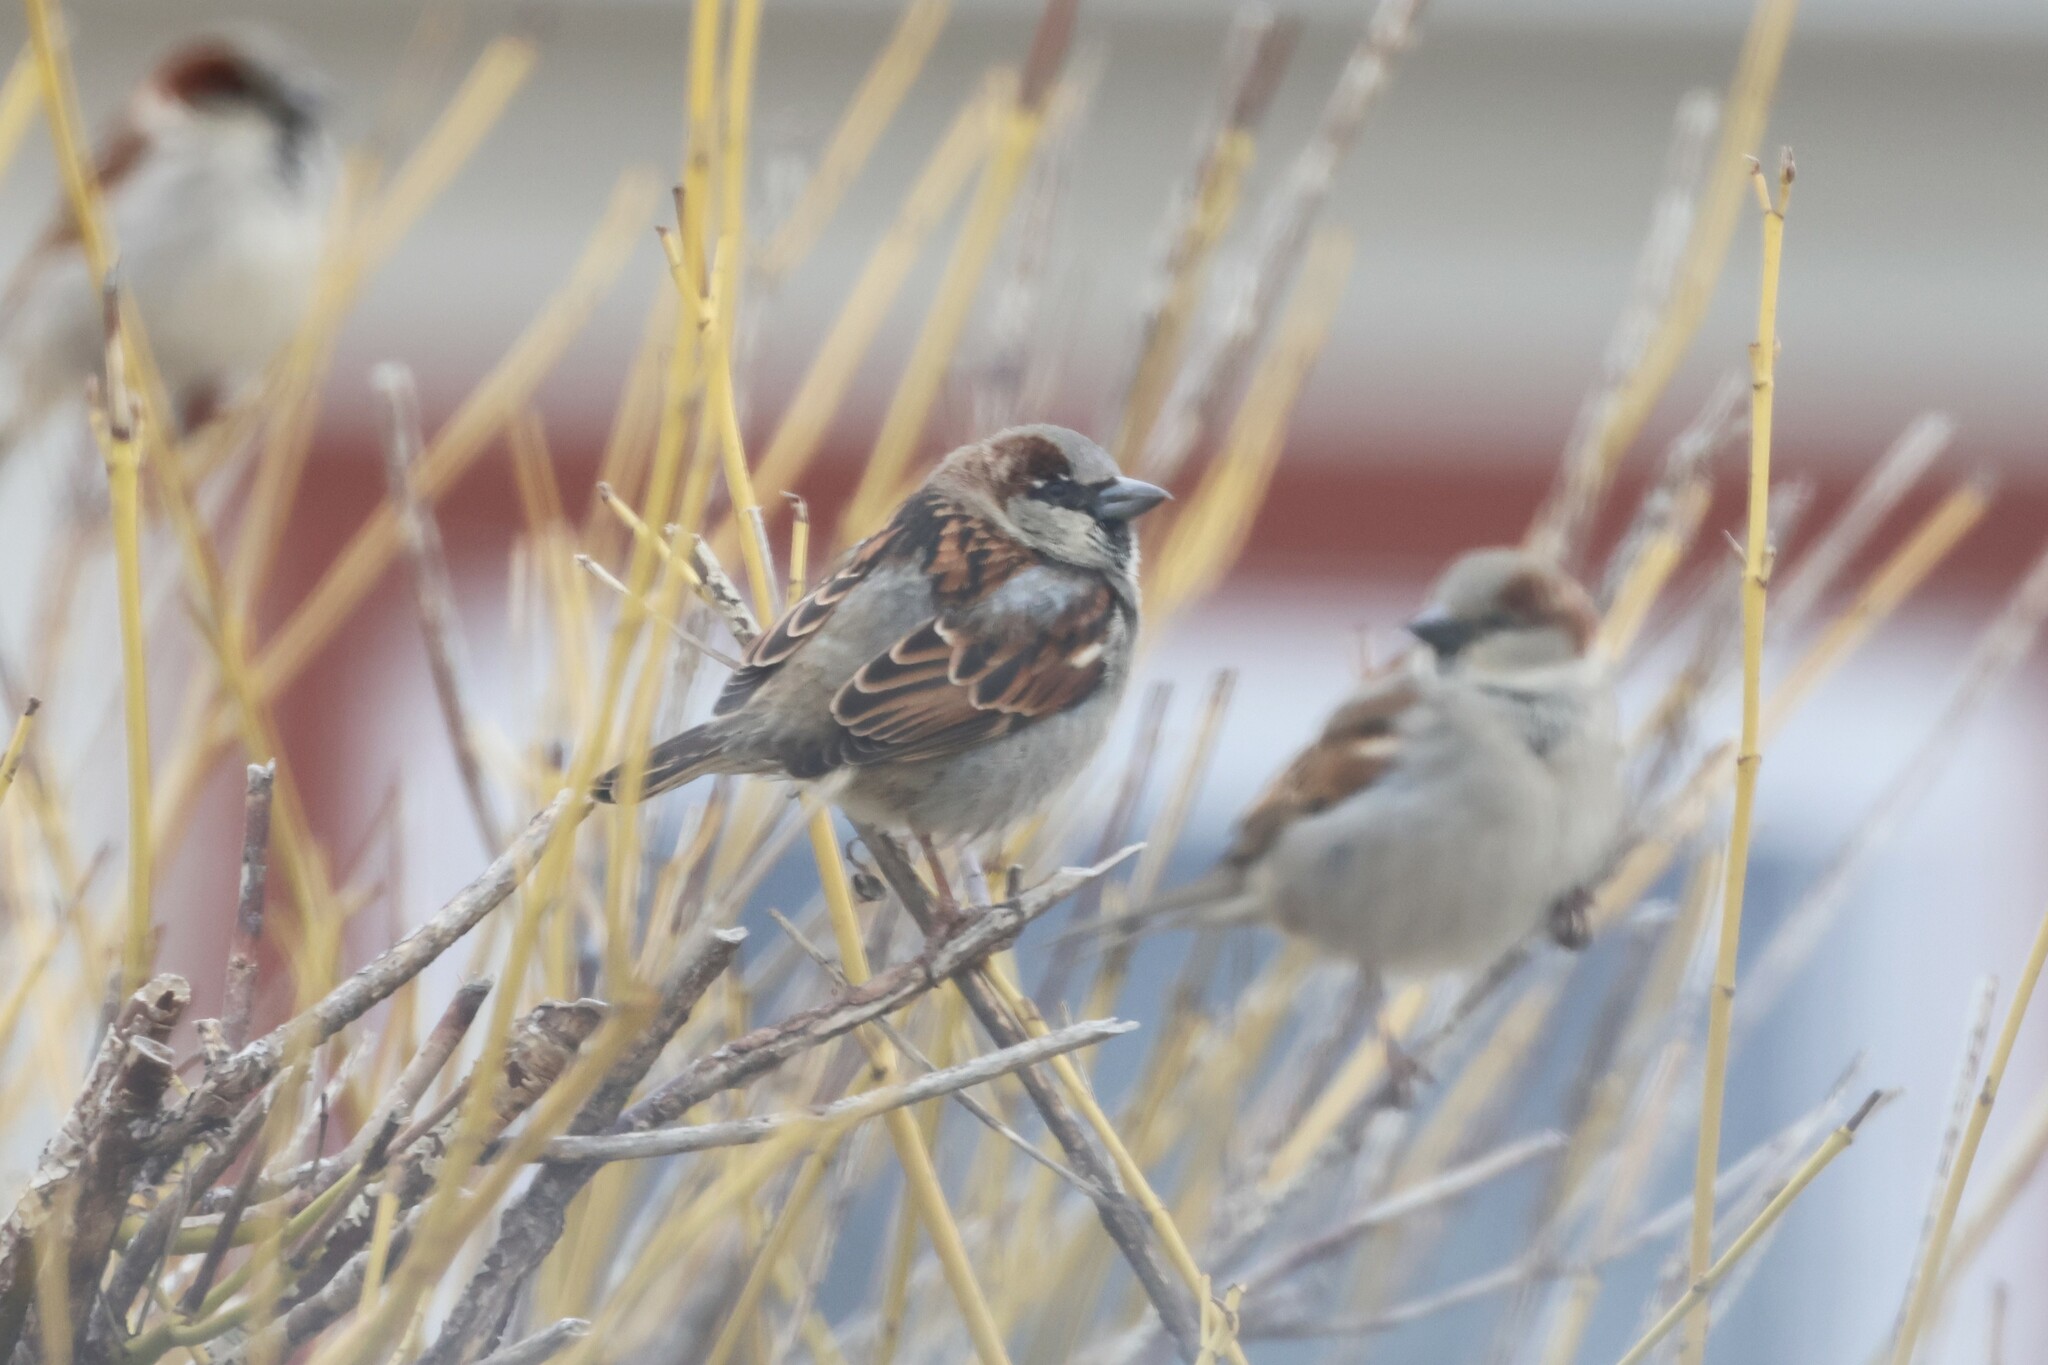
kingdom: Animalia
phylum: Chordata
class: Aves
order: Passeriformes
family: Passeridae
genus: Passer
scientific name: Passer domesticus
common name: House sparrow
